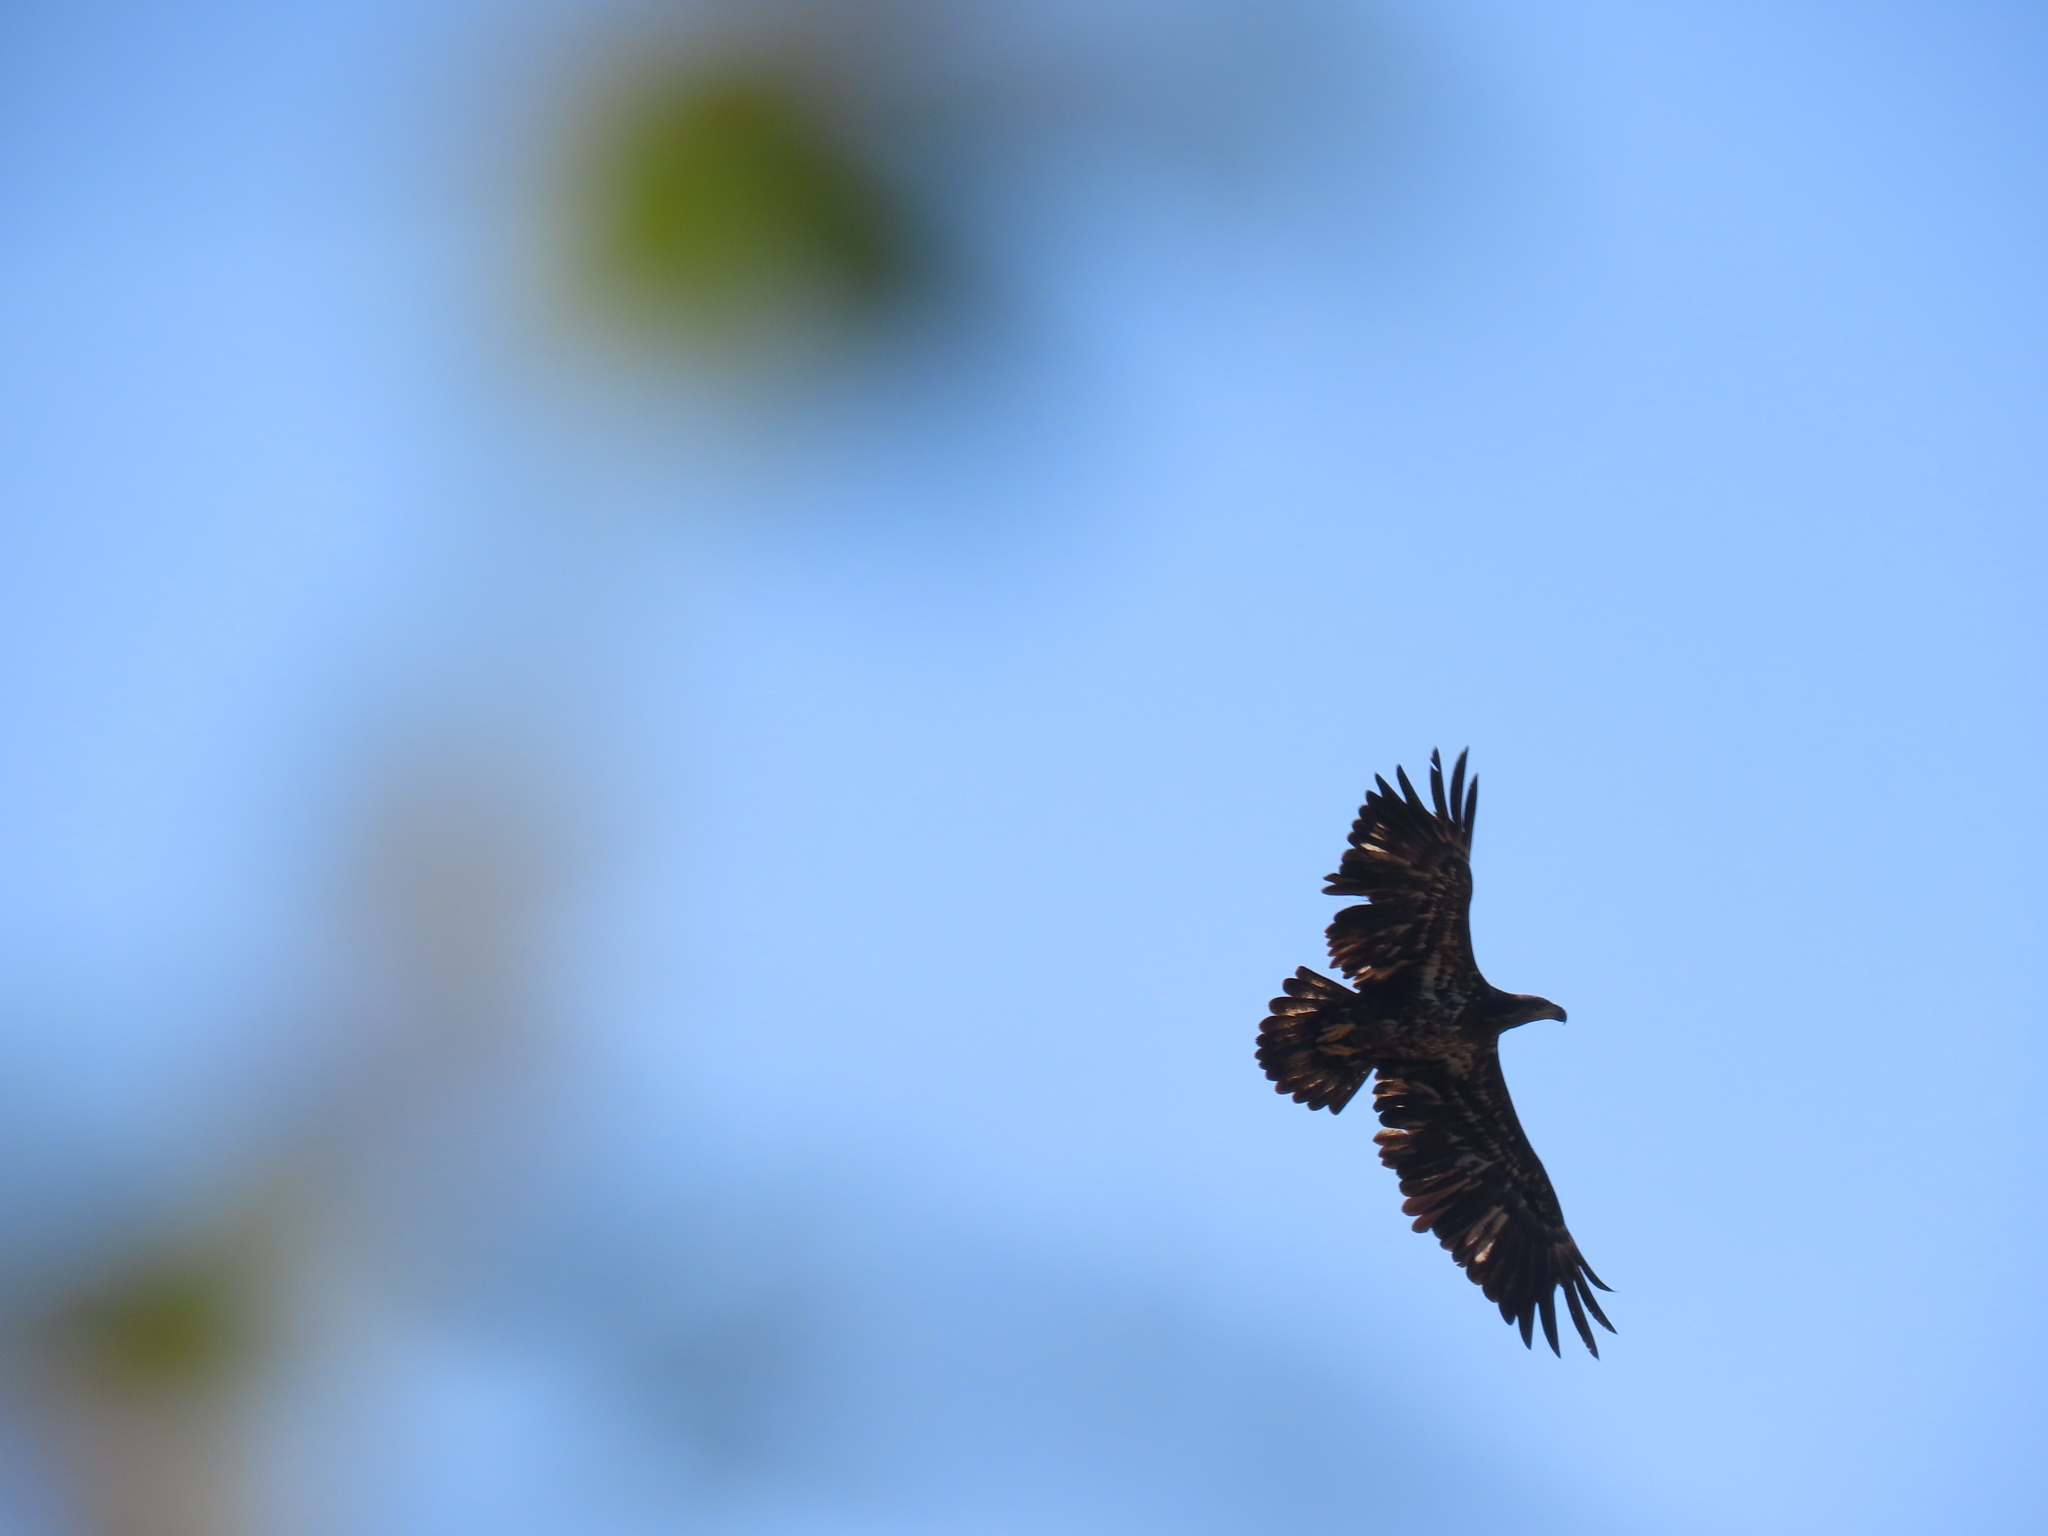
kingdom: Animalia
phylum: Chordata
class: Aves
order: Accipitriformes
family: Accipitridae
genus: Haliaeetus
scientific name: Haliaeetus leucocephalus
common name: Bald eagle
